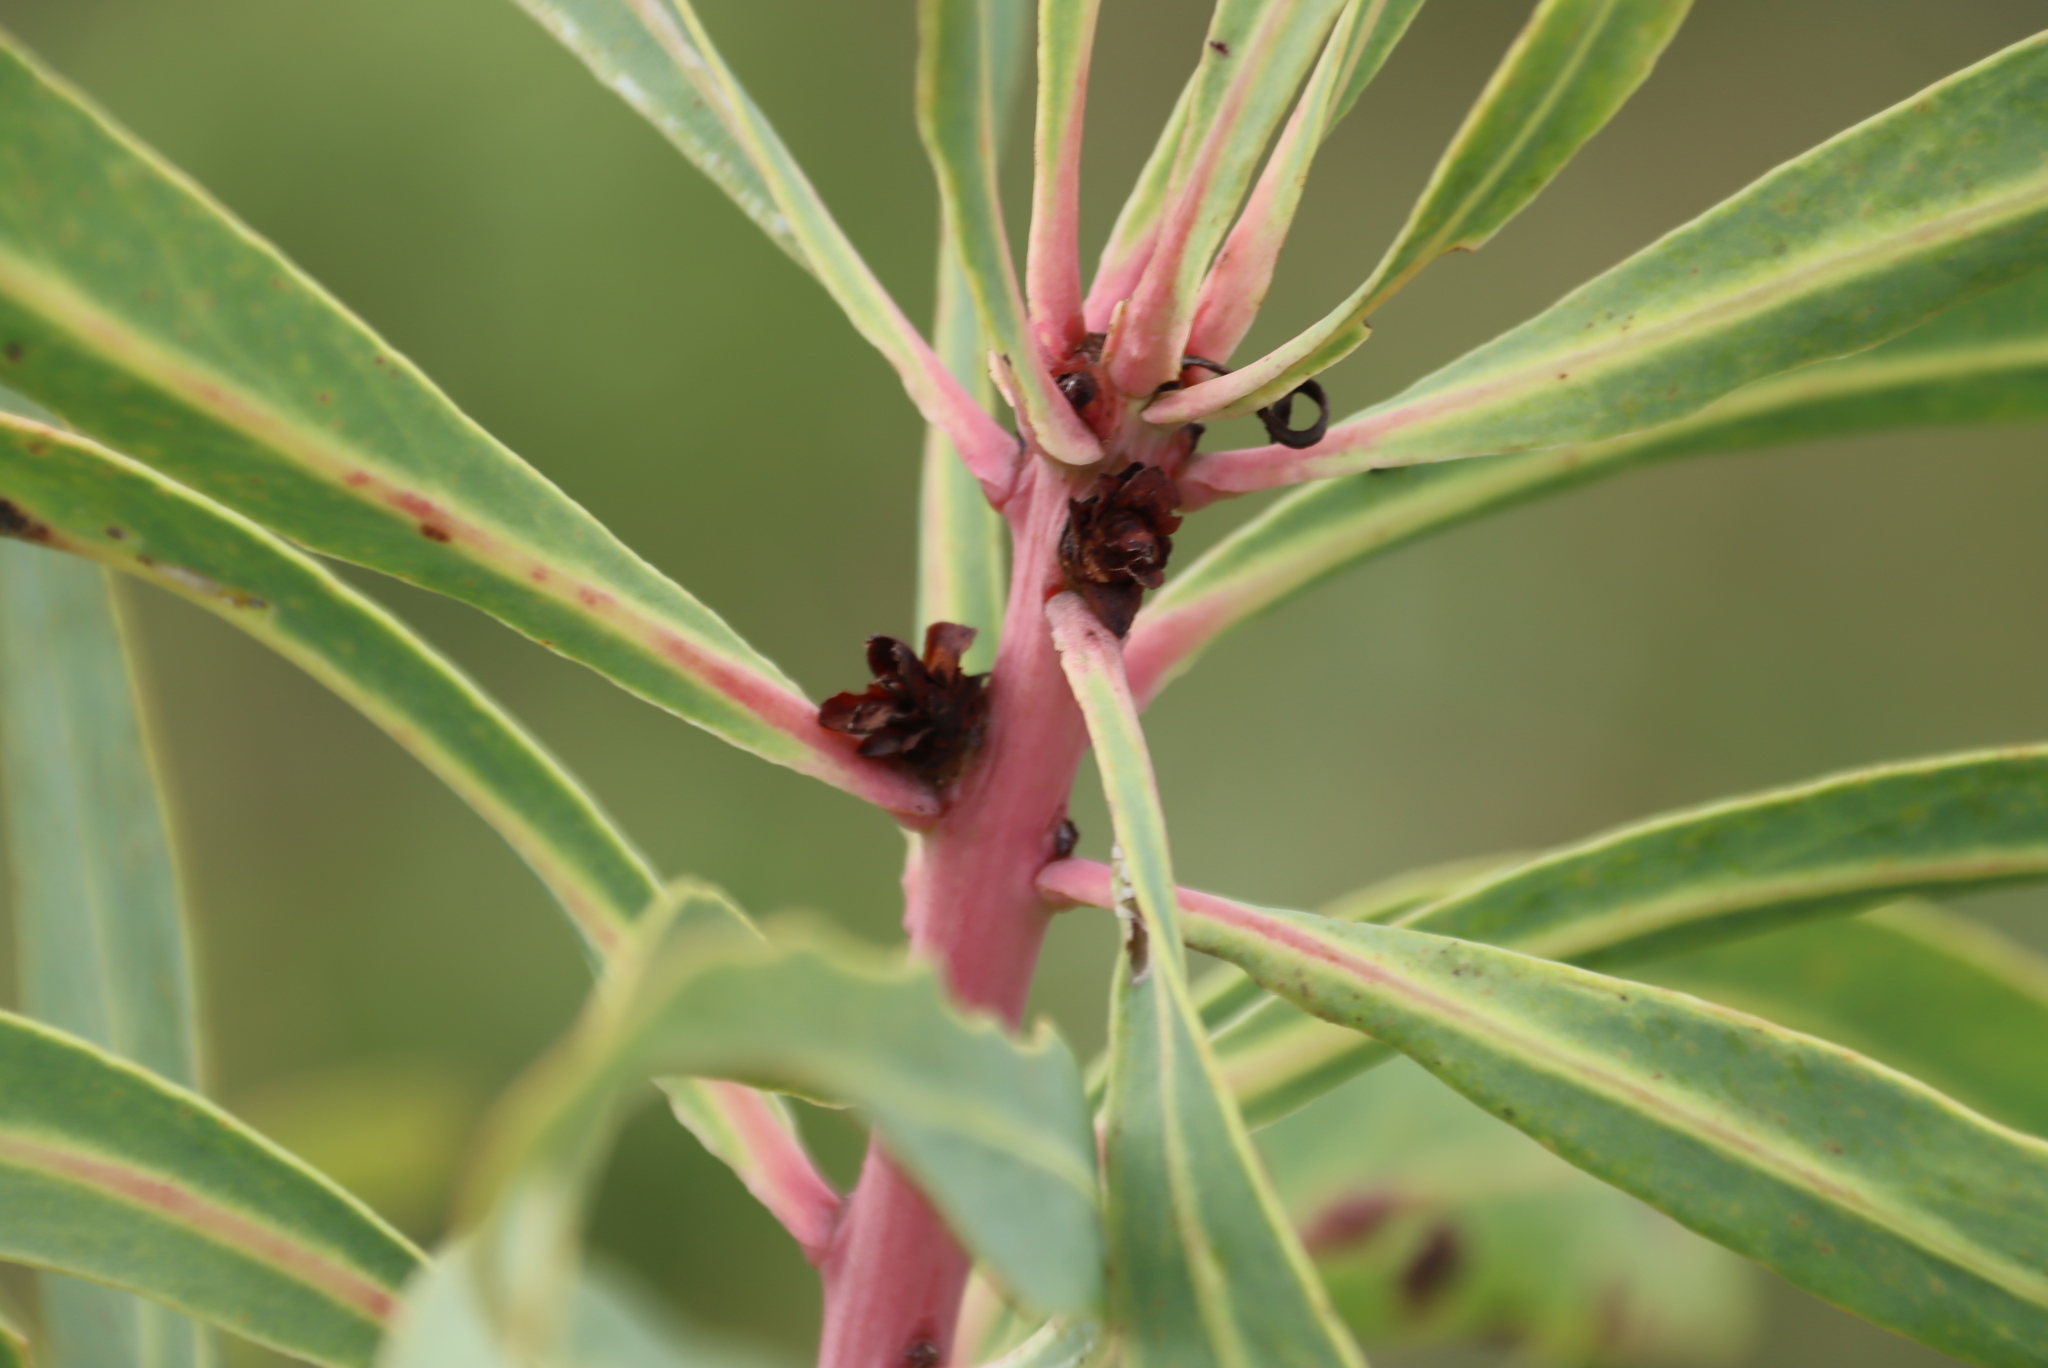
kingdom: Plantae
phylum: Tracheophyta
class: Magnoliopsida
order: Proteales
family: Proteaceae
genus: Protea
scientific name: Protea gaguedi
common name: African protea
